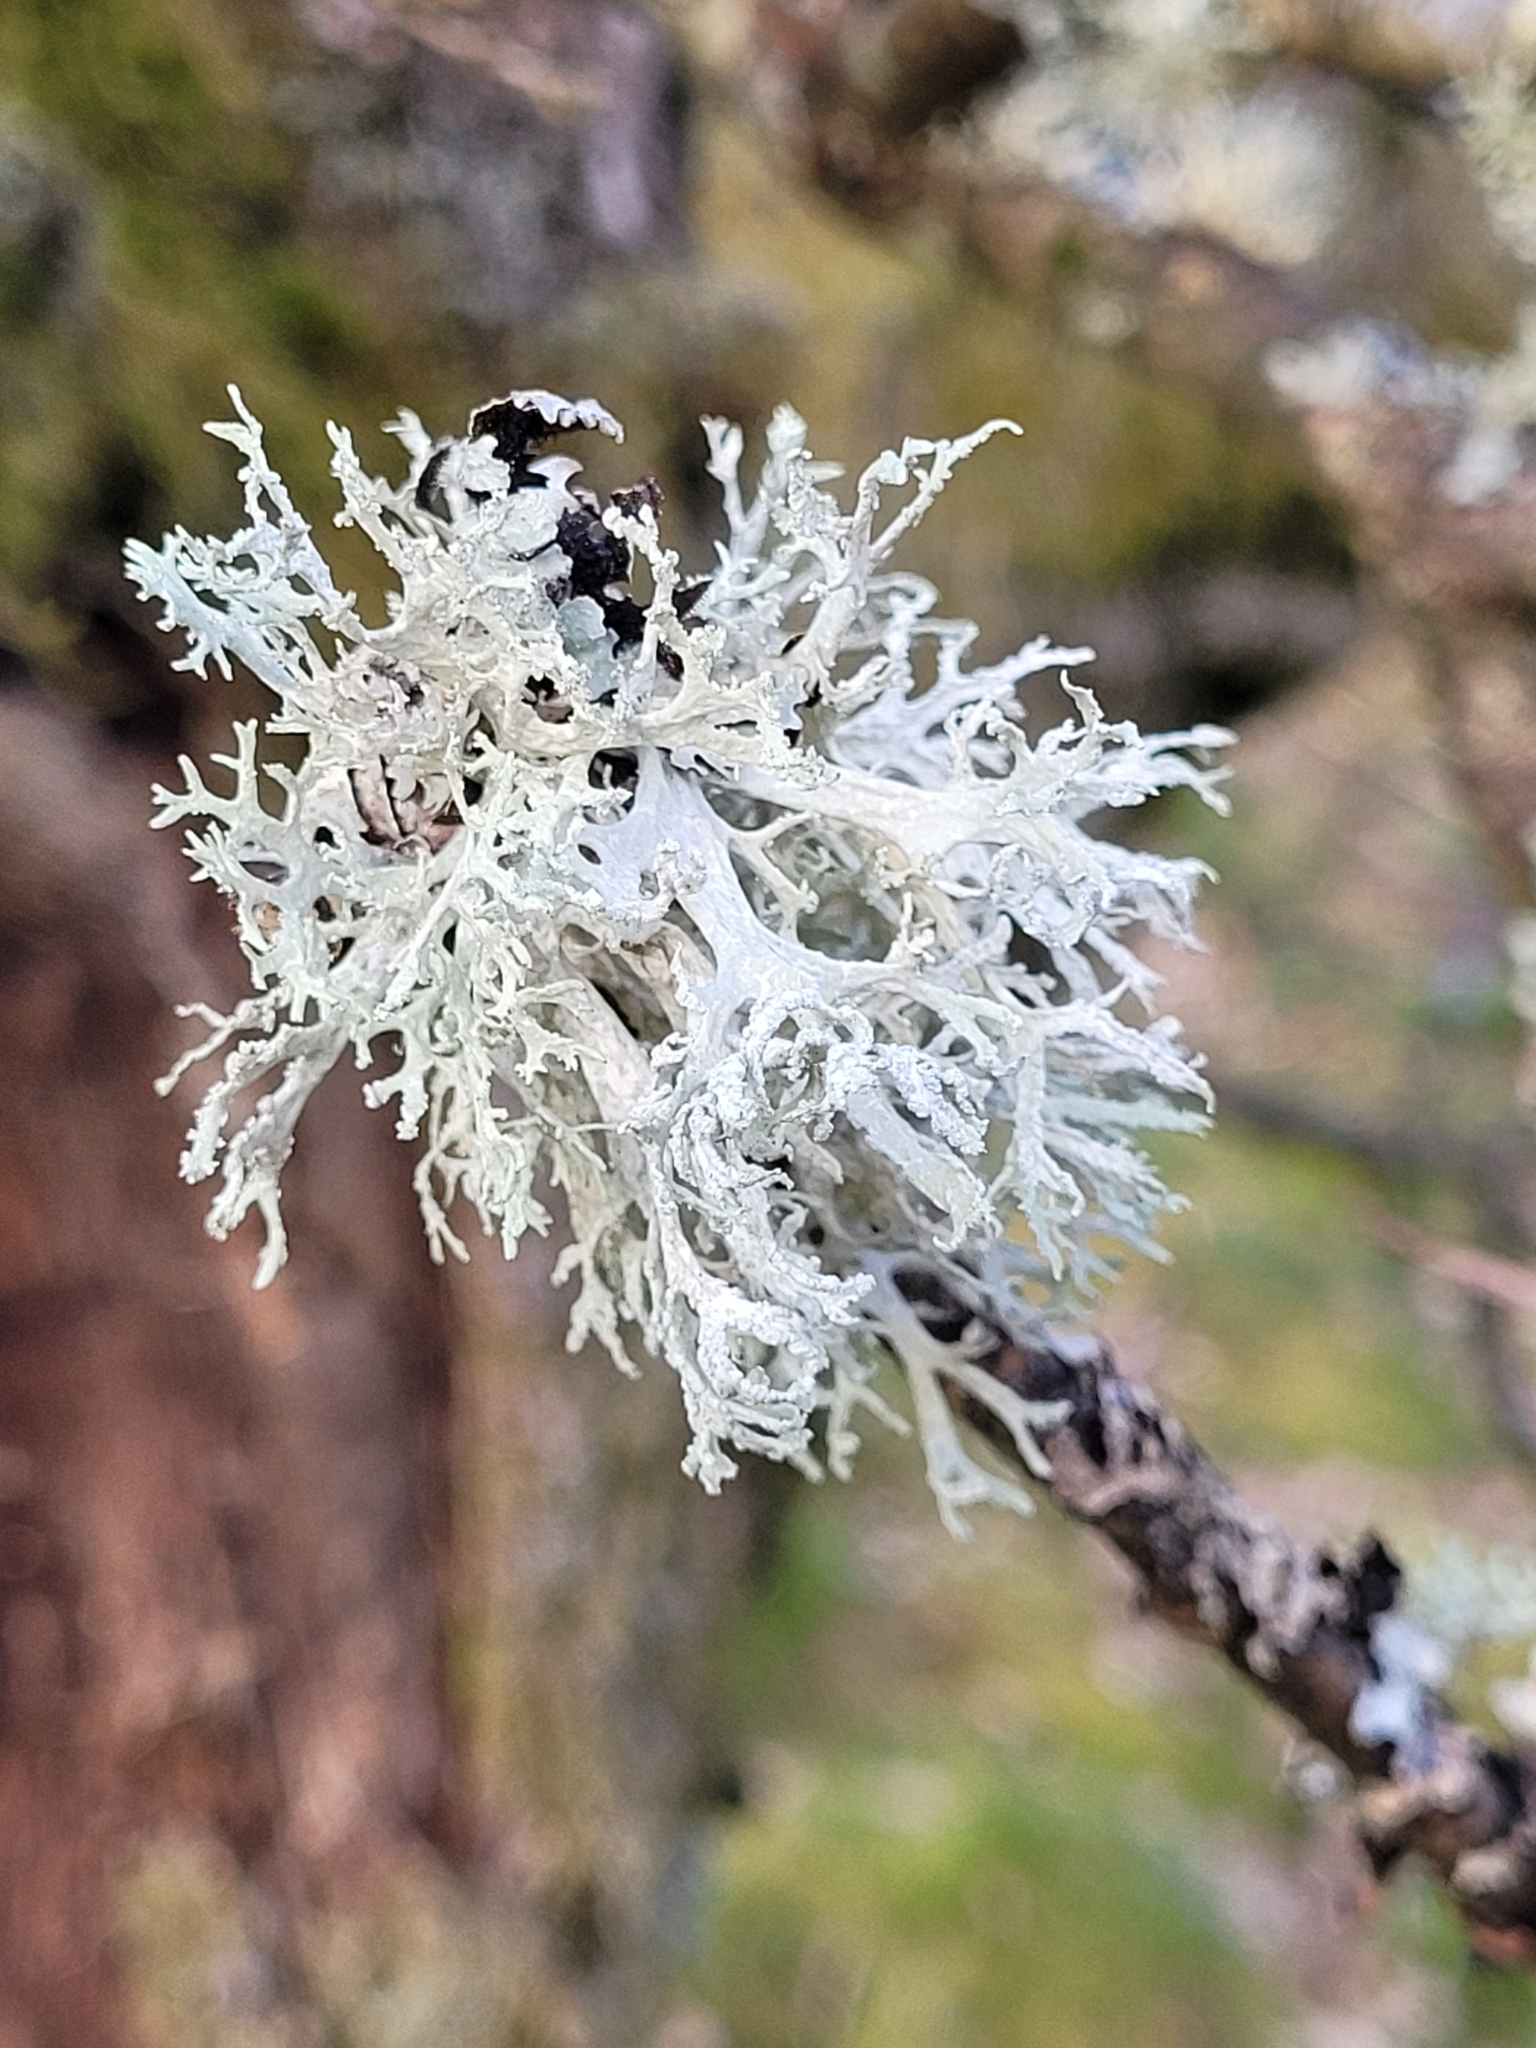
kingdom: Fungi
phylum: Ascomycota
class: Lecanoromycetes
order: Lecanorales
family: Parmeliaceae
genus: Evernia
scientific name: Evernia prunastri
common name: Oak moss
